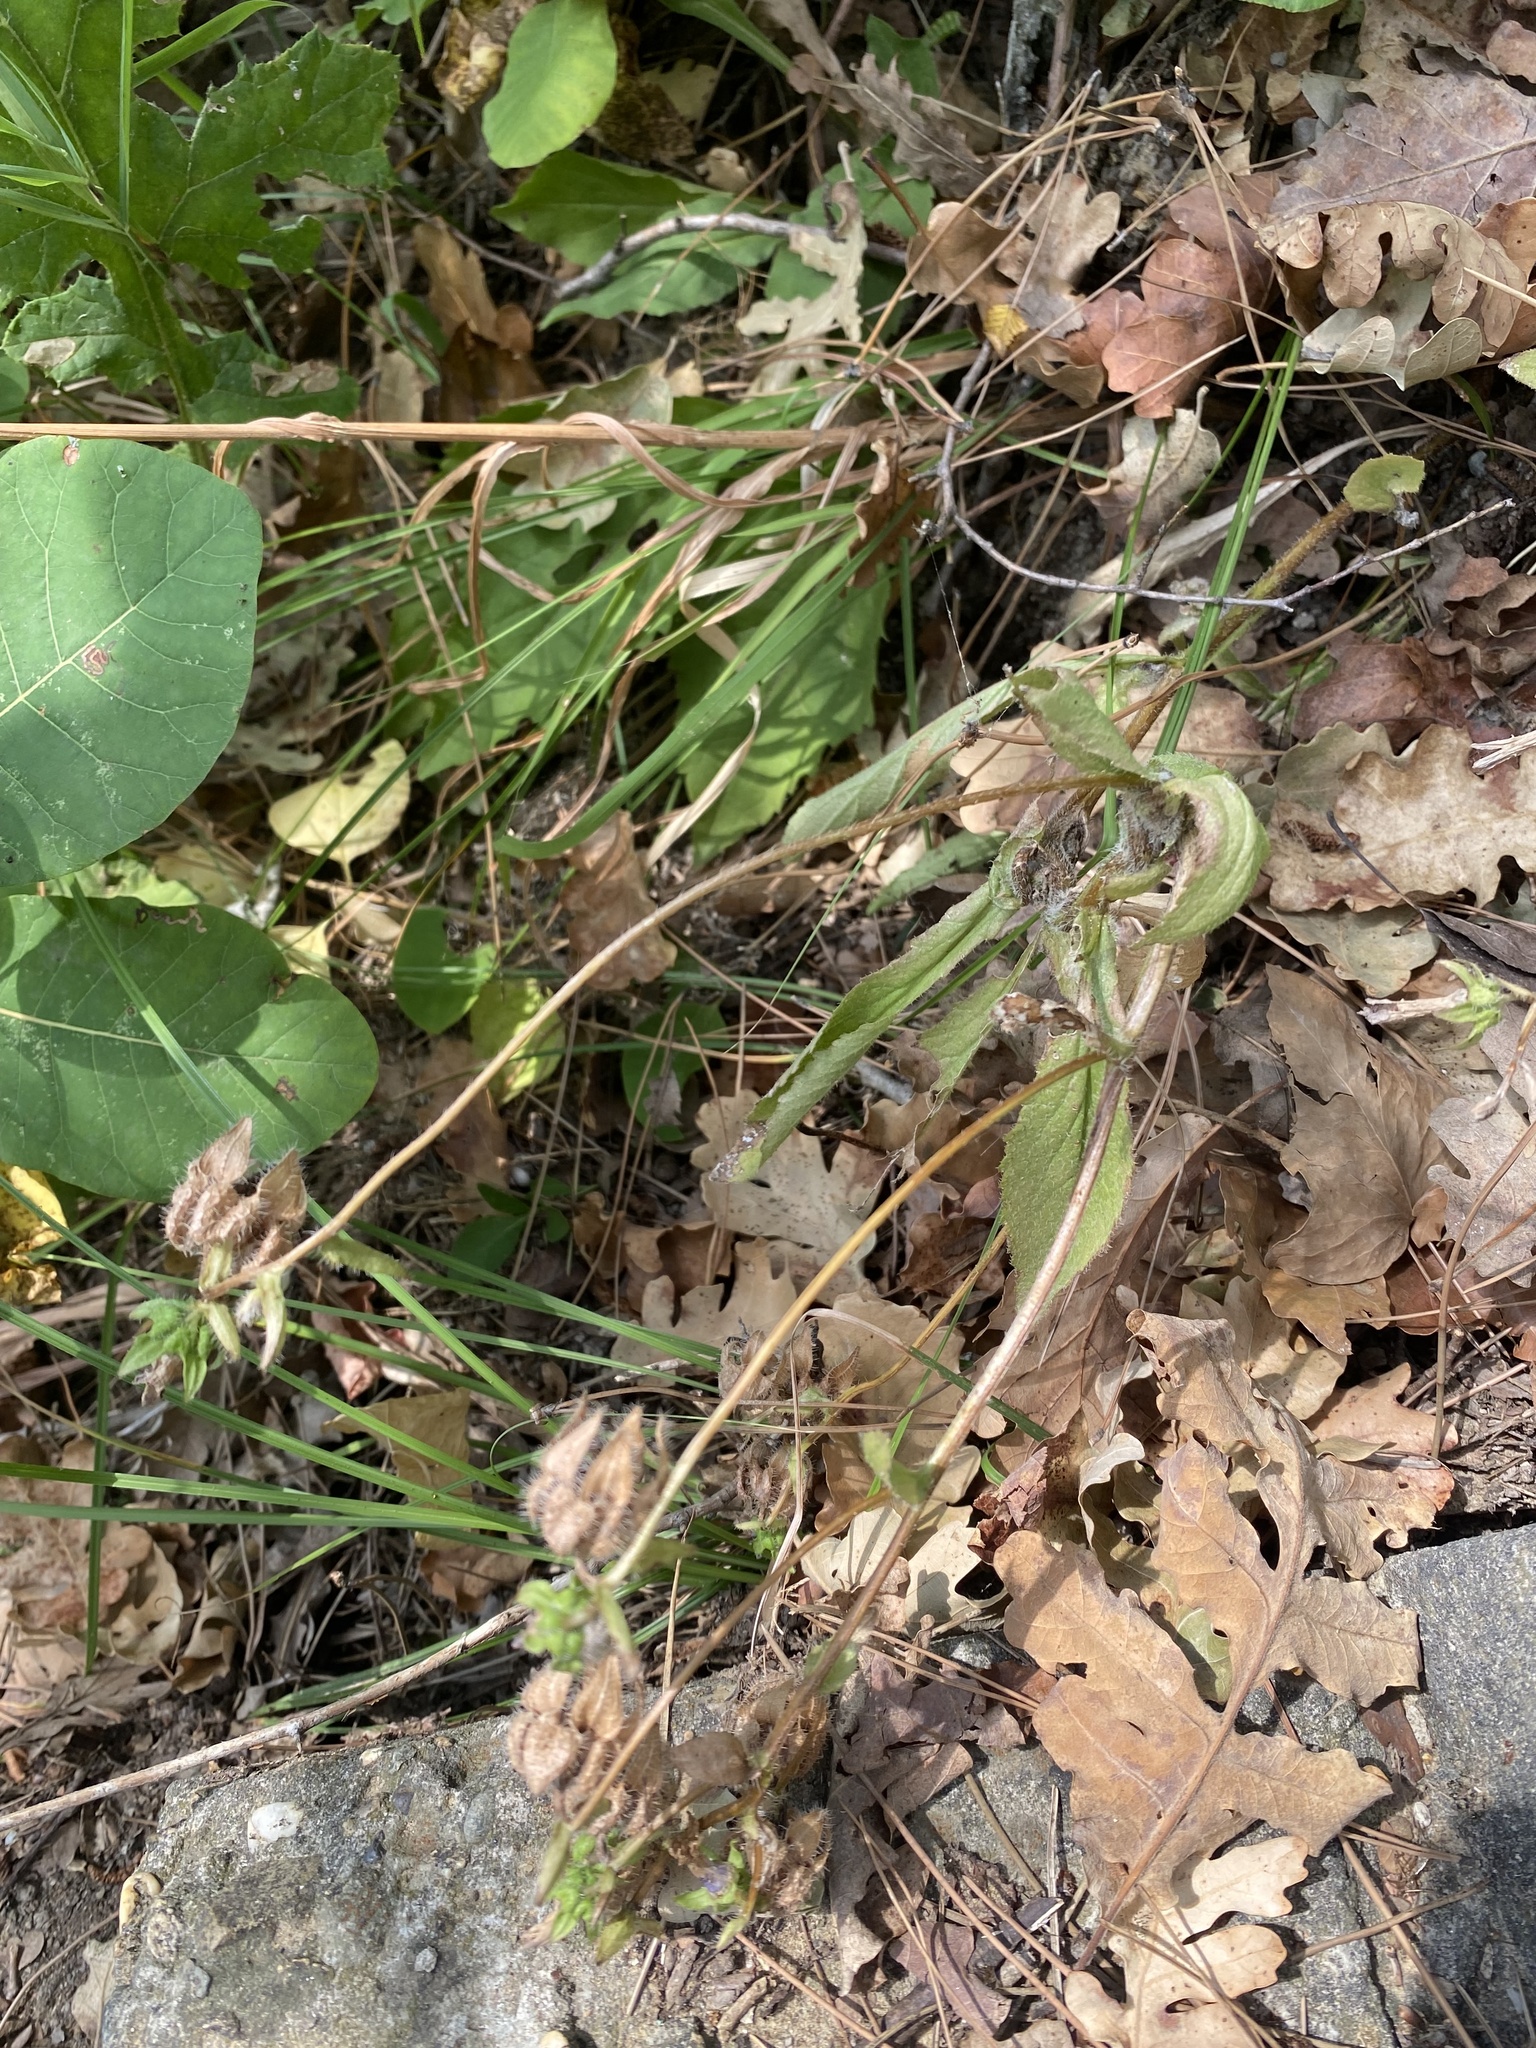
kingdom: Plantae
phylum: Tracheophyta
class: Magnoliopsida
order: Asterales
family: Campanulaceae
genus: Campanula
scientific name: Campanula komarovii
